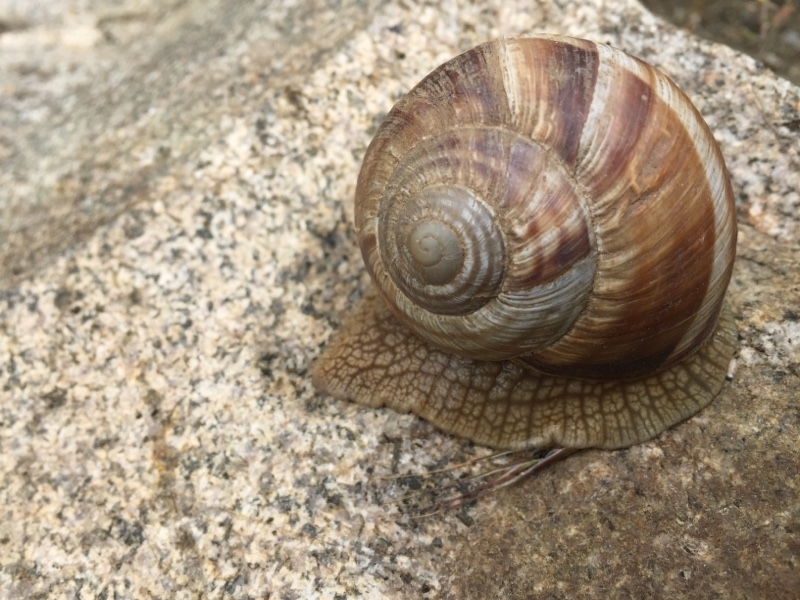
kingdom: Animalia
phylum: Mollusca
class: Gastropoda
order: Stylommatophora
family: Helicidae
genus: Helix
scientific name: Helix lucorum
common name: Turkish snail
